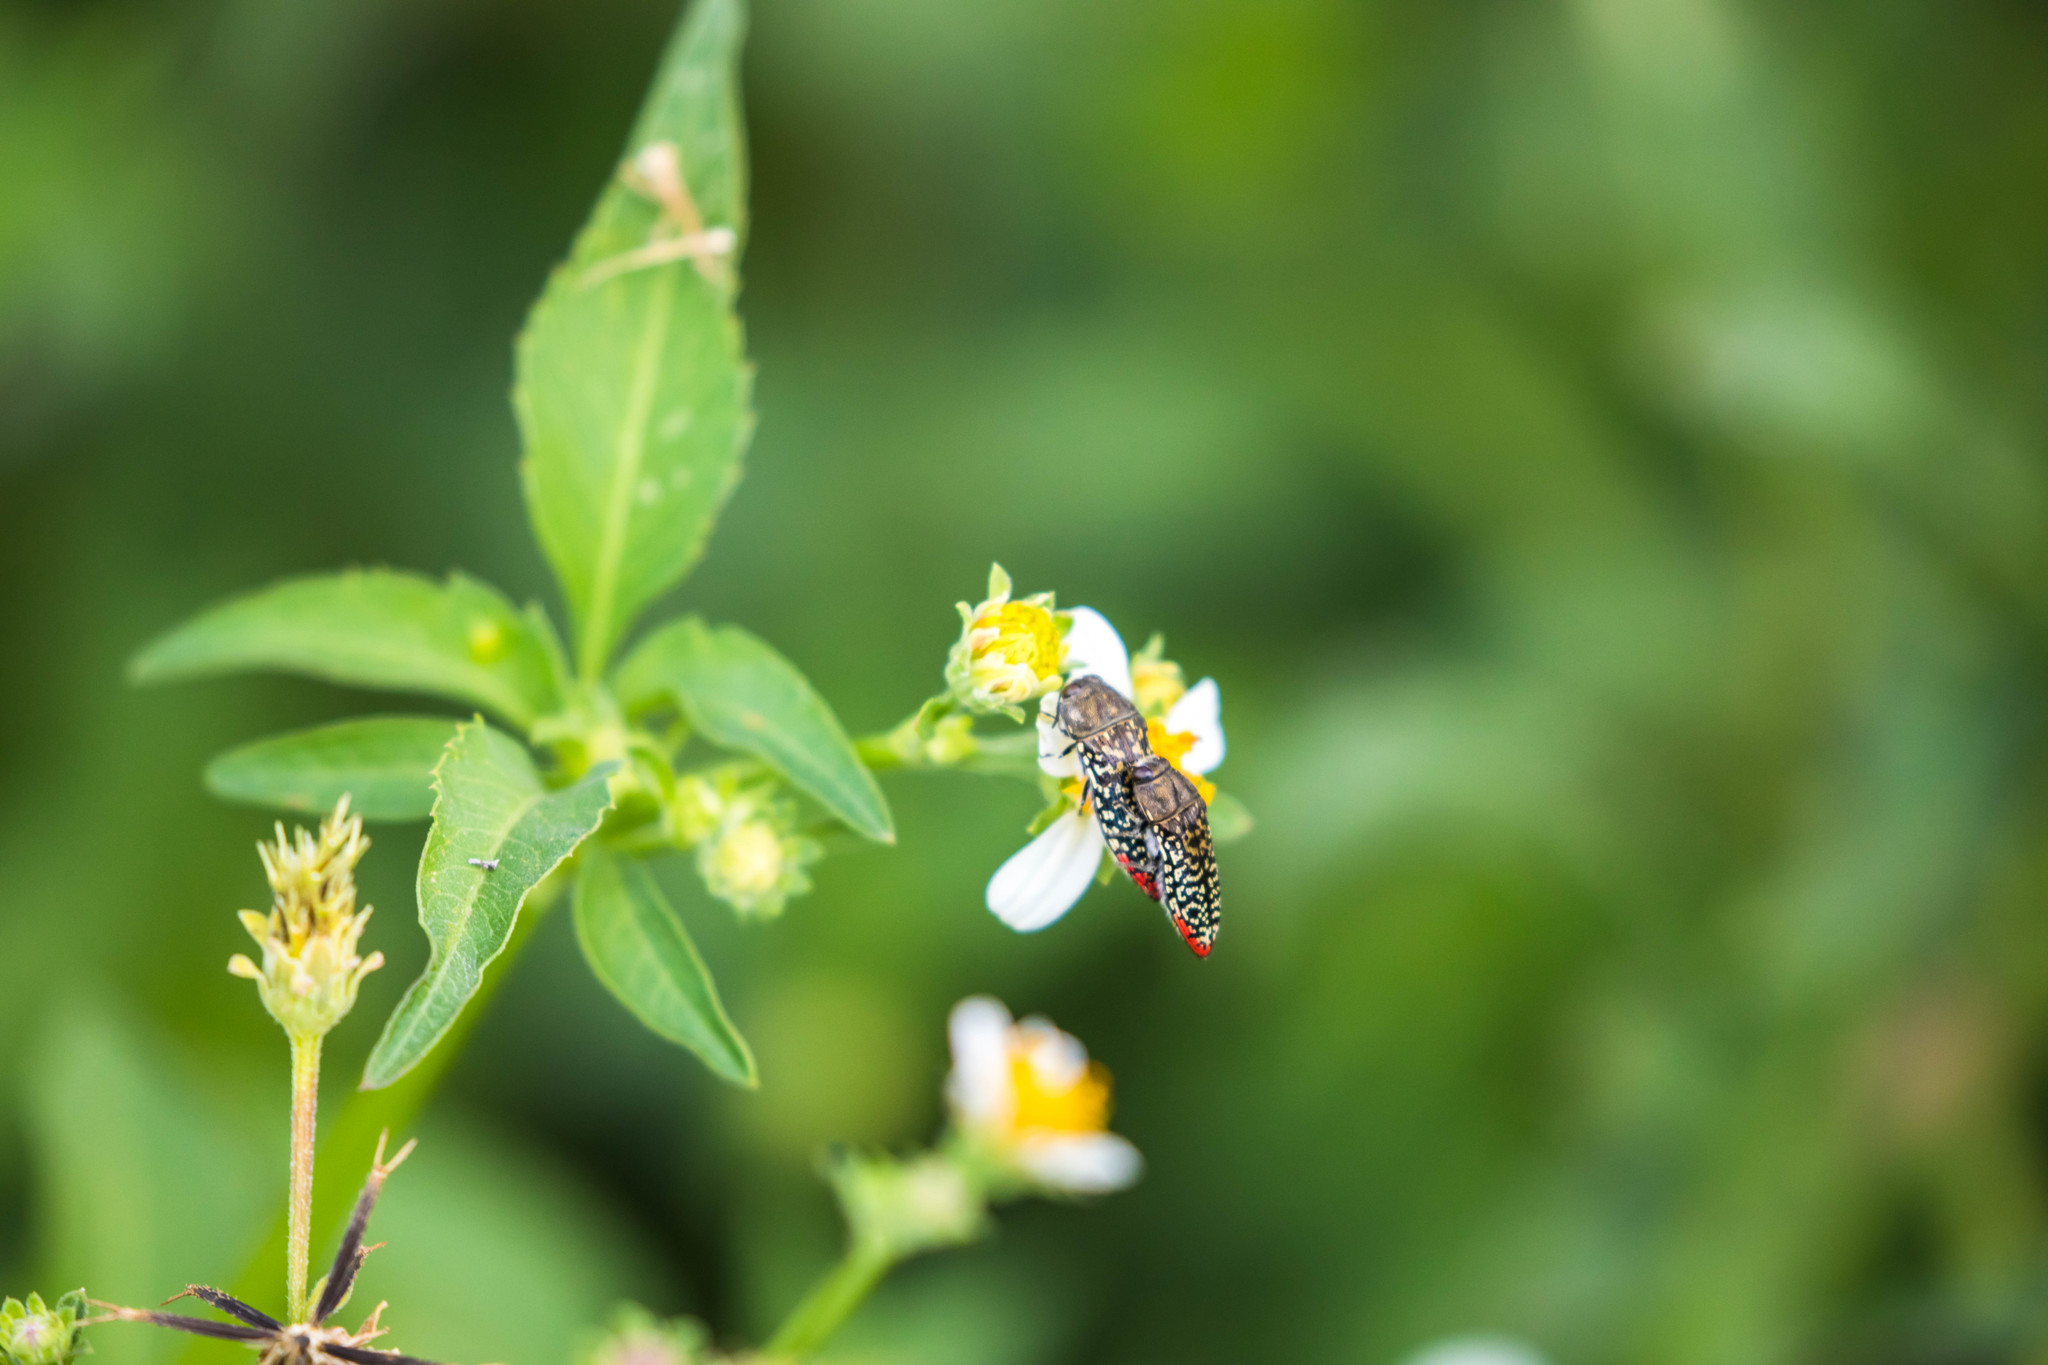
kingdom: Animalia
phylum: Arthropoda
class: Insecta
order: Coleoptera
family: Buprestidae
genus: Acmaeodera
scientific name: Acmaeodera haemorrhoa
